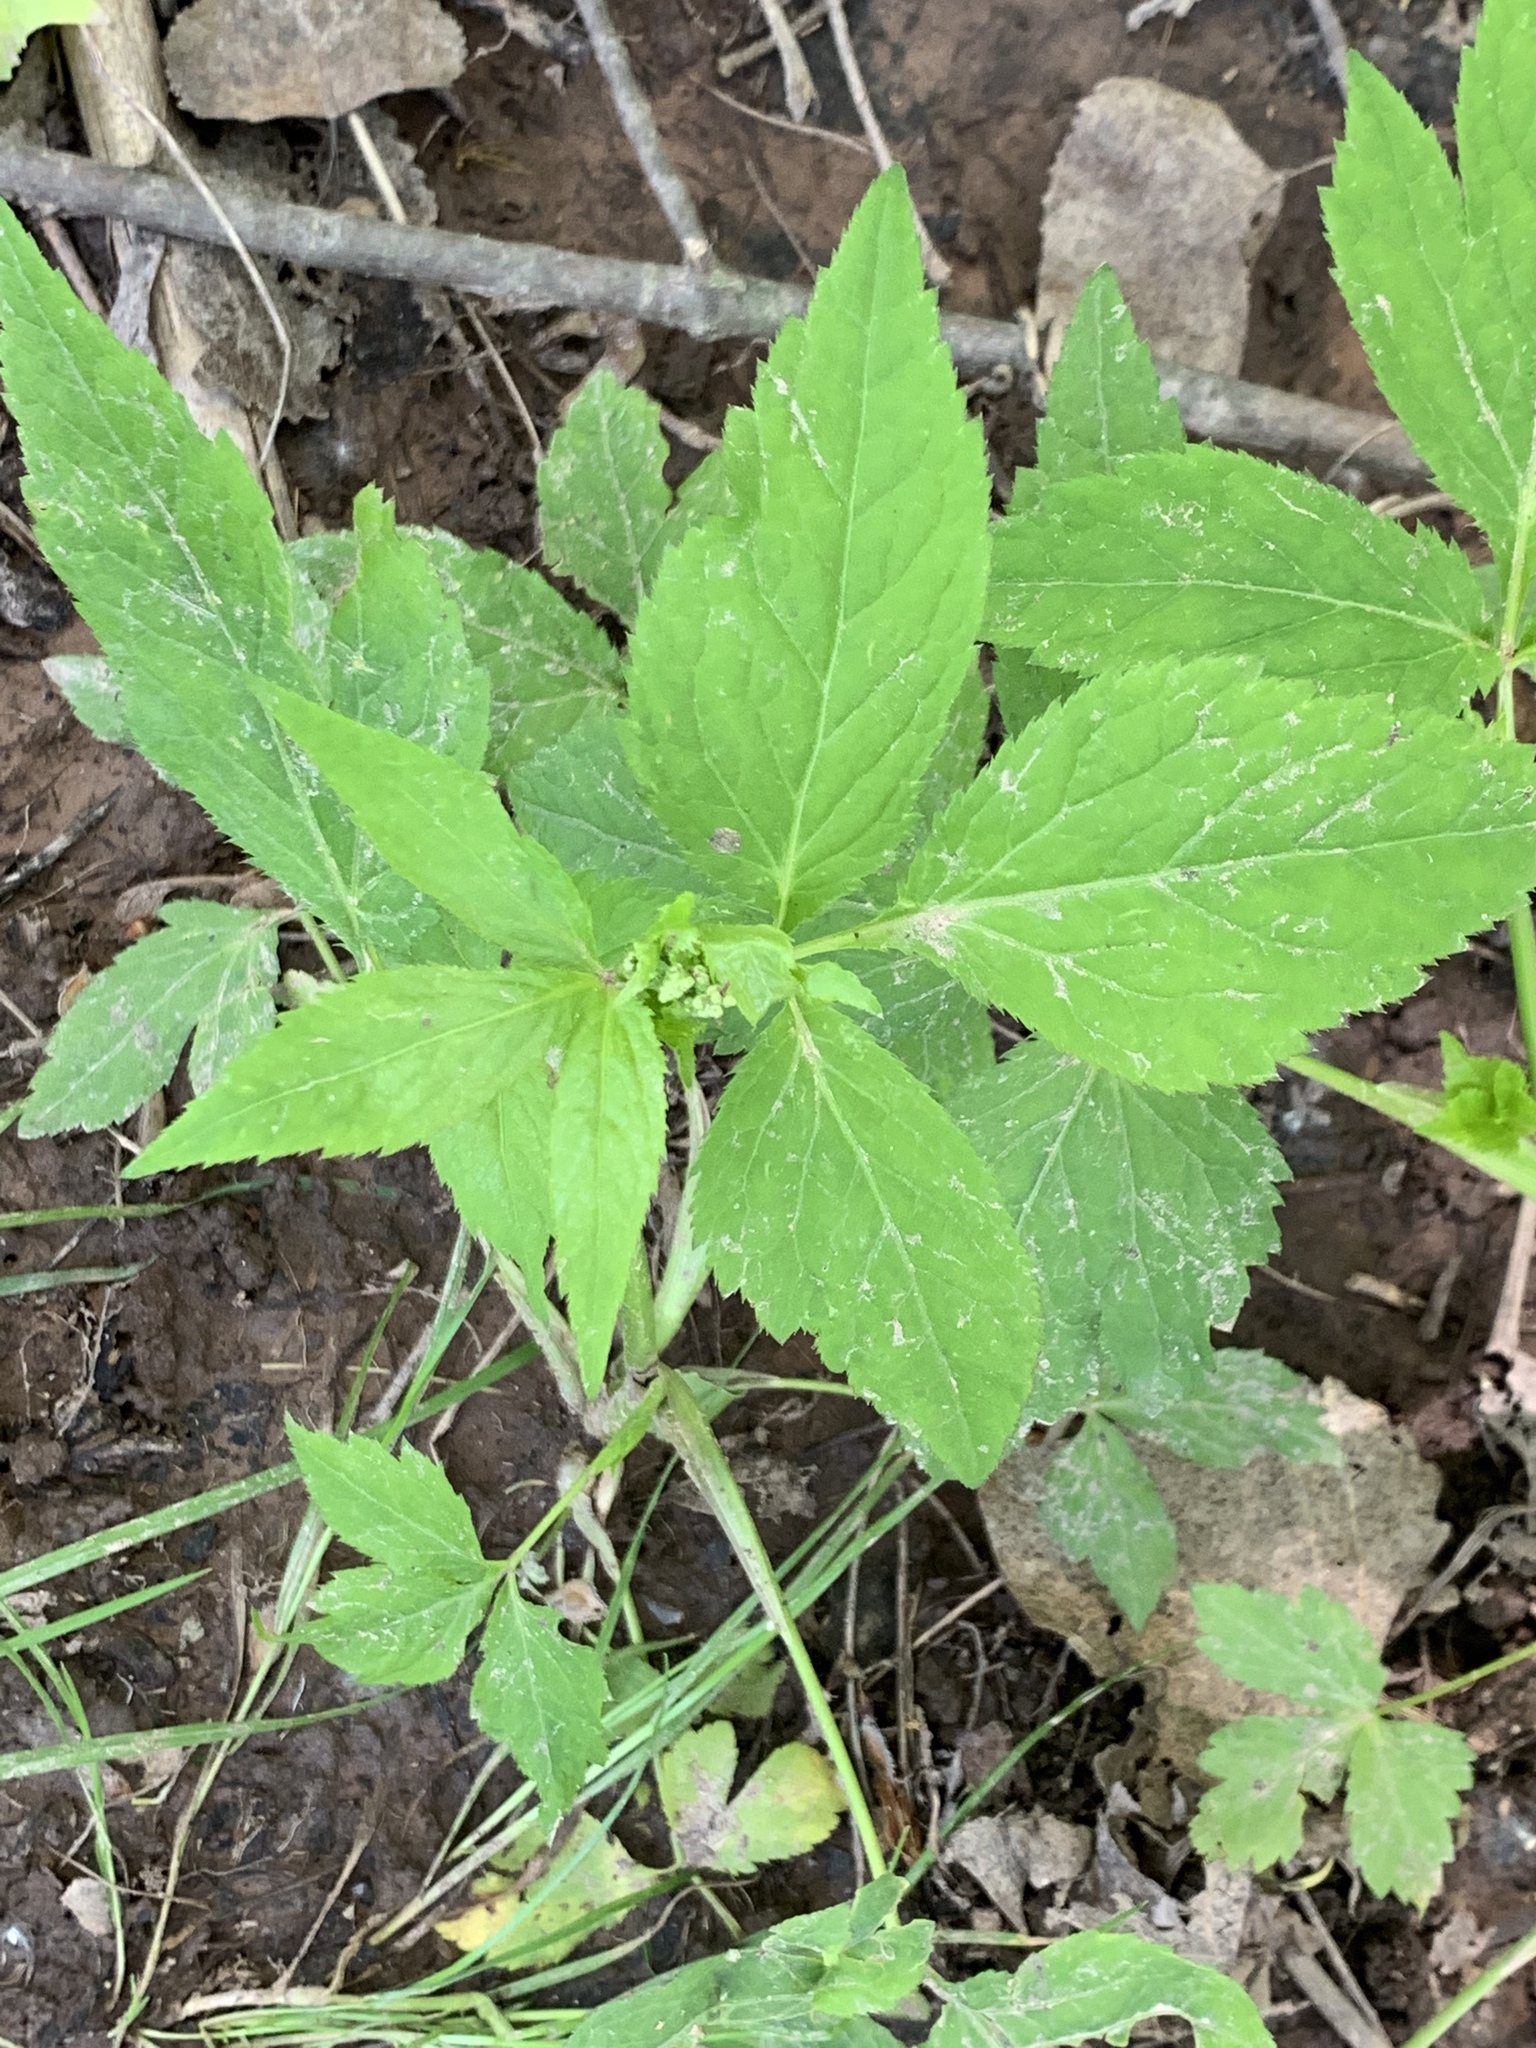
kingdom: Plantae
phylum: Tracheophyta
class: Magnoliopsida
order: Apiales
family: Apiaceae
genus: Cryptotaenia
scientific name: Cryptotaenia canadensis
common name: Honewort
